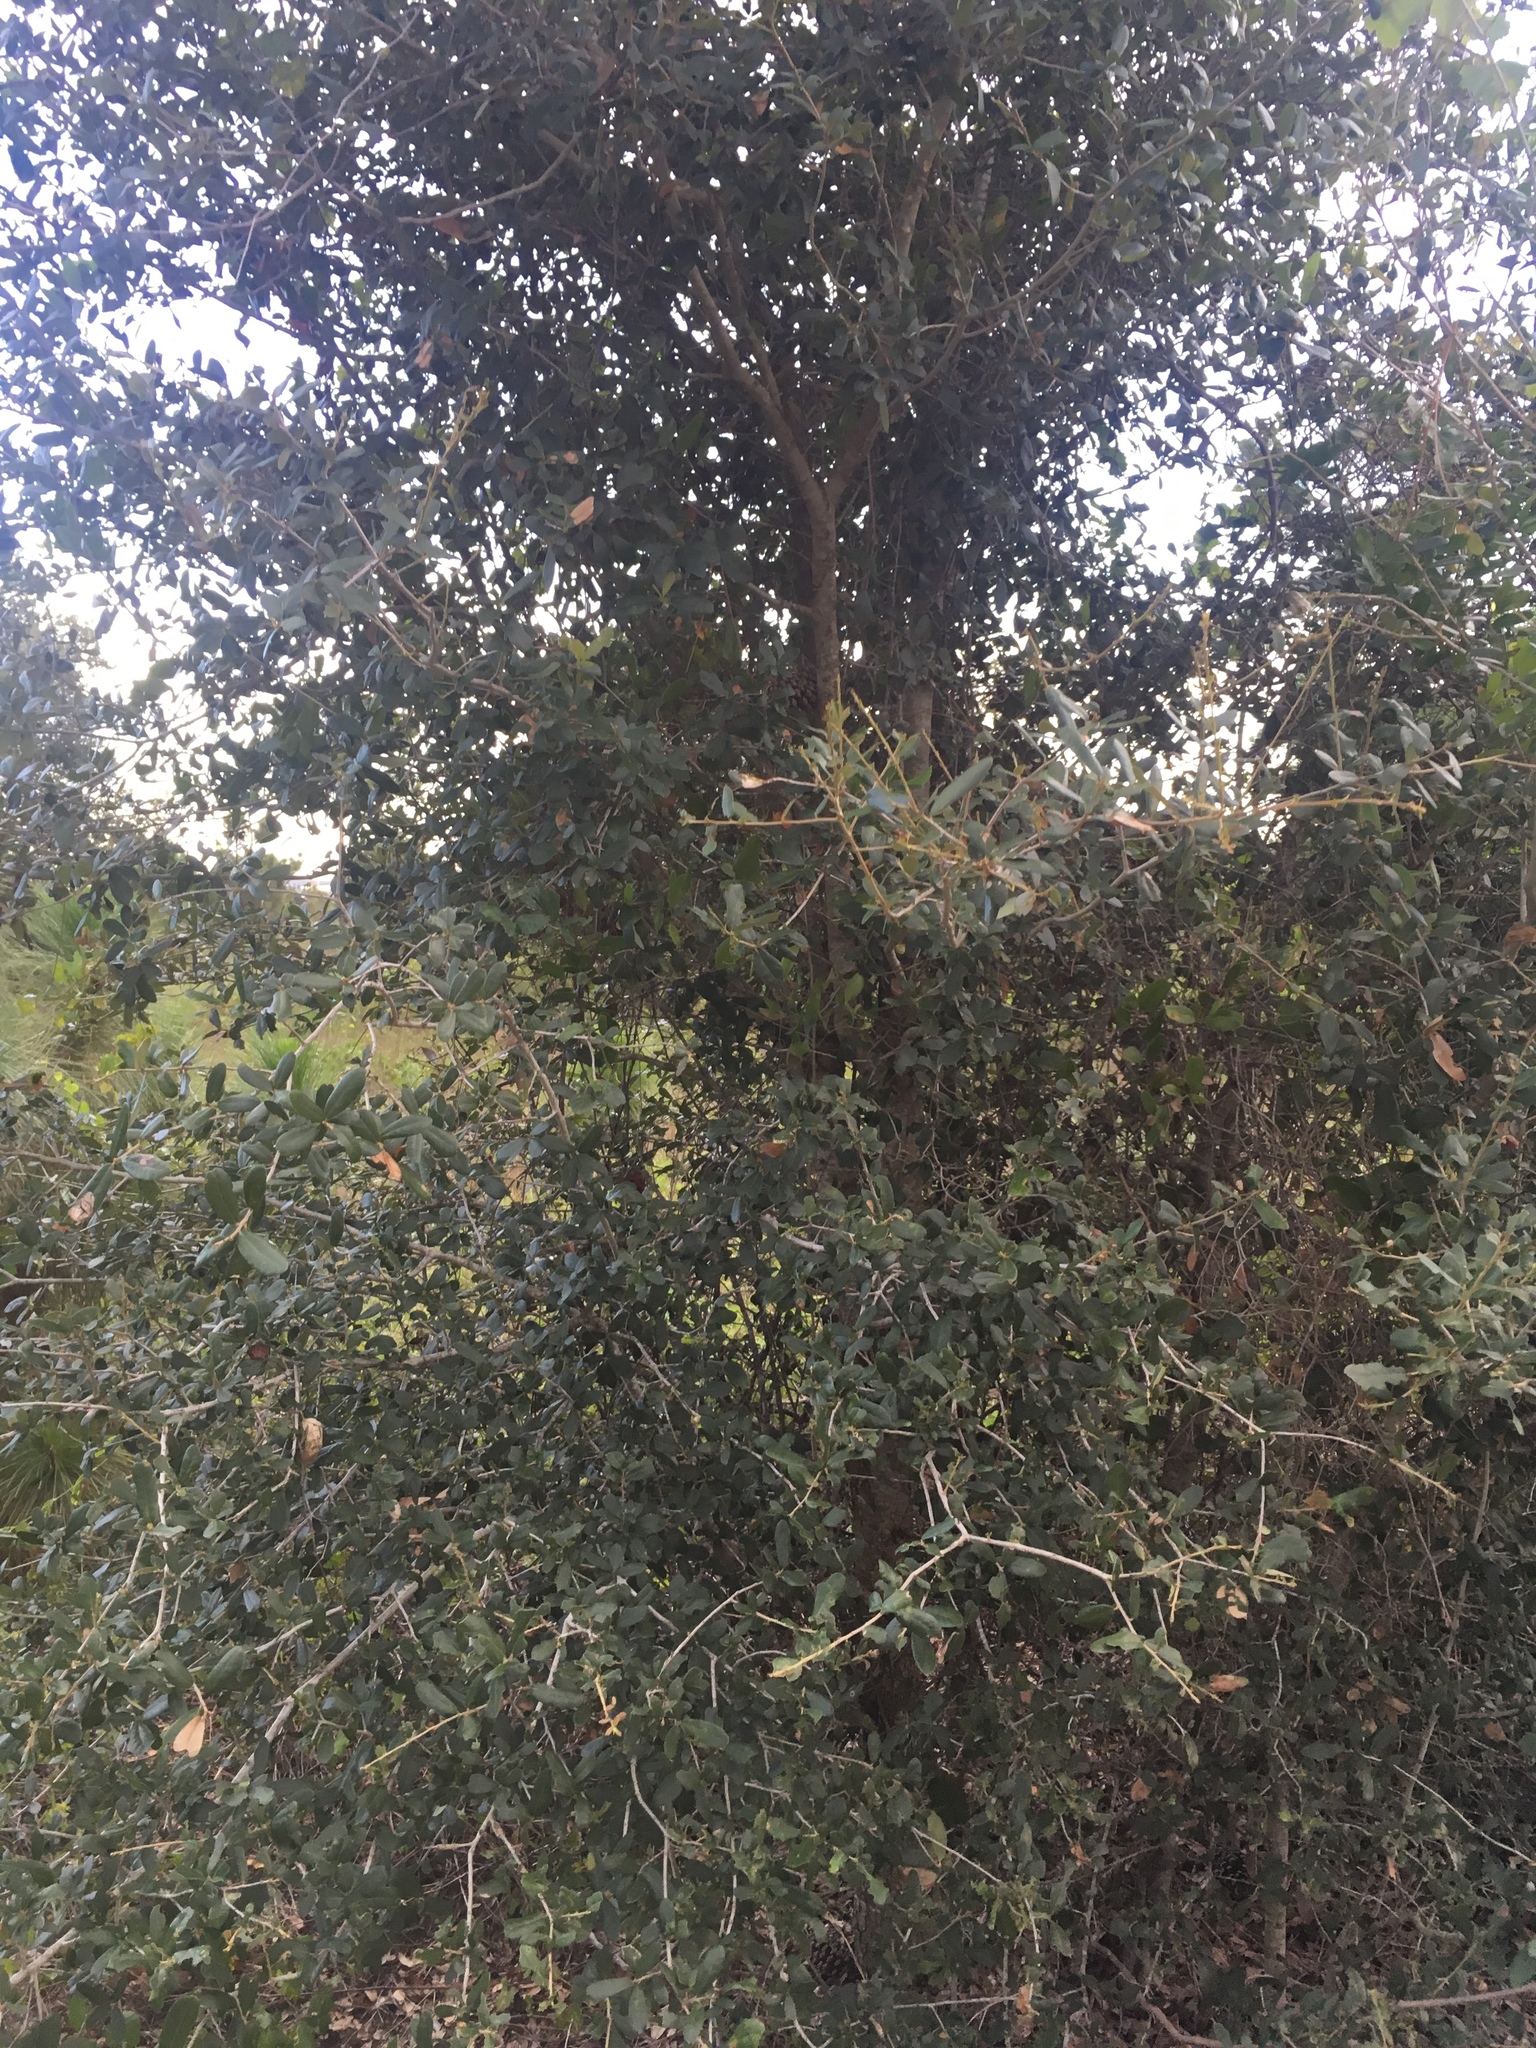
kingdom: Plantae
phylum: Tracheophyta
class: Magnoliopsida
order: Fagales
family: Fagaceae
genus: Quercus
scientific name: Quercus virginiana
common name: Southern live oak
